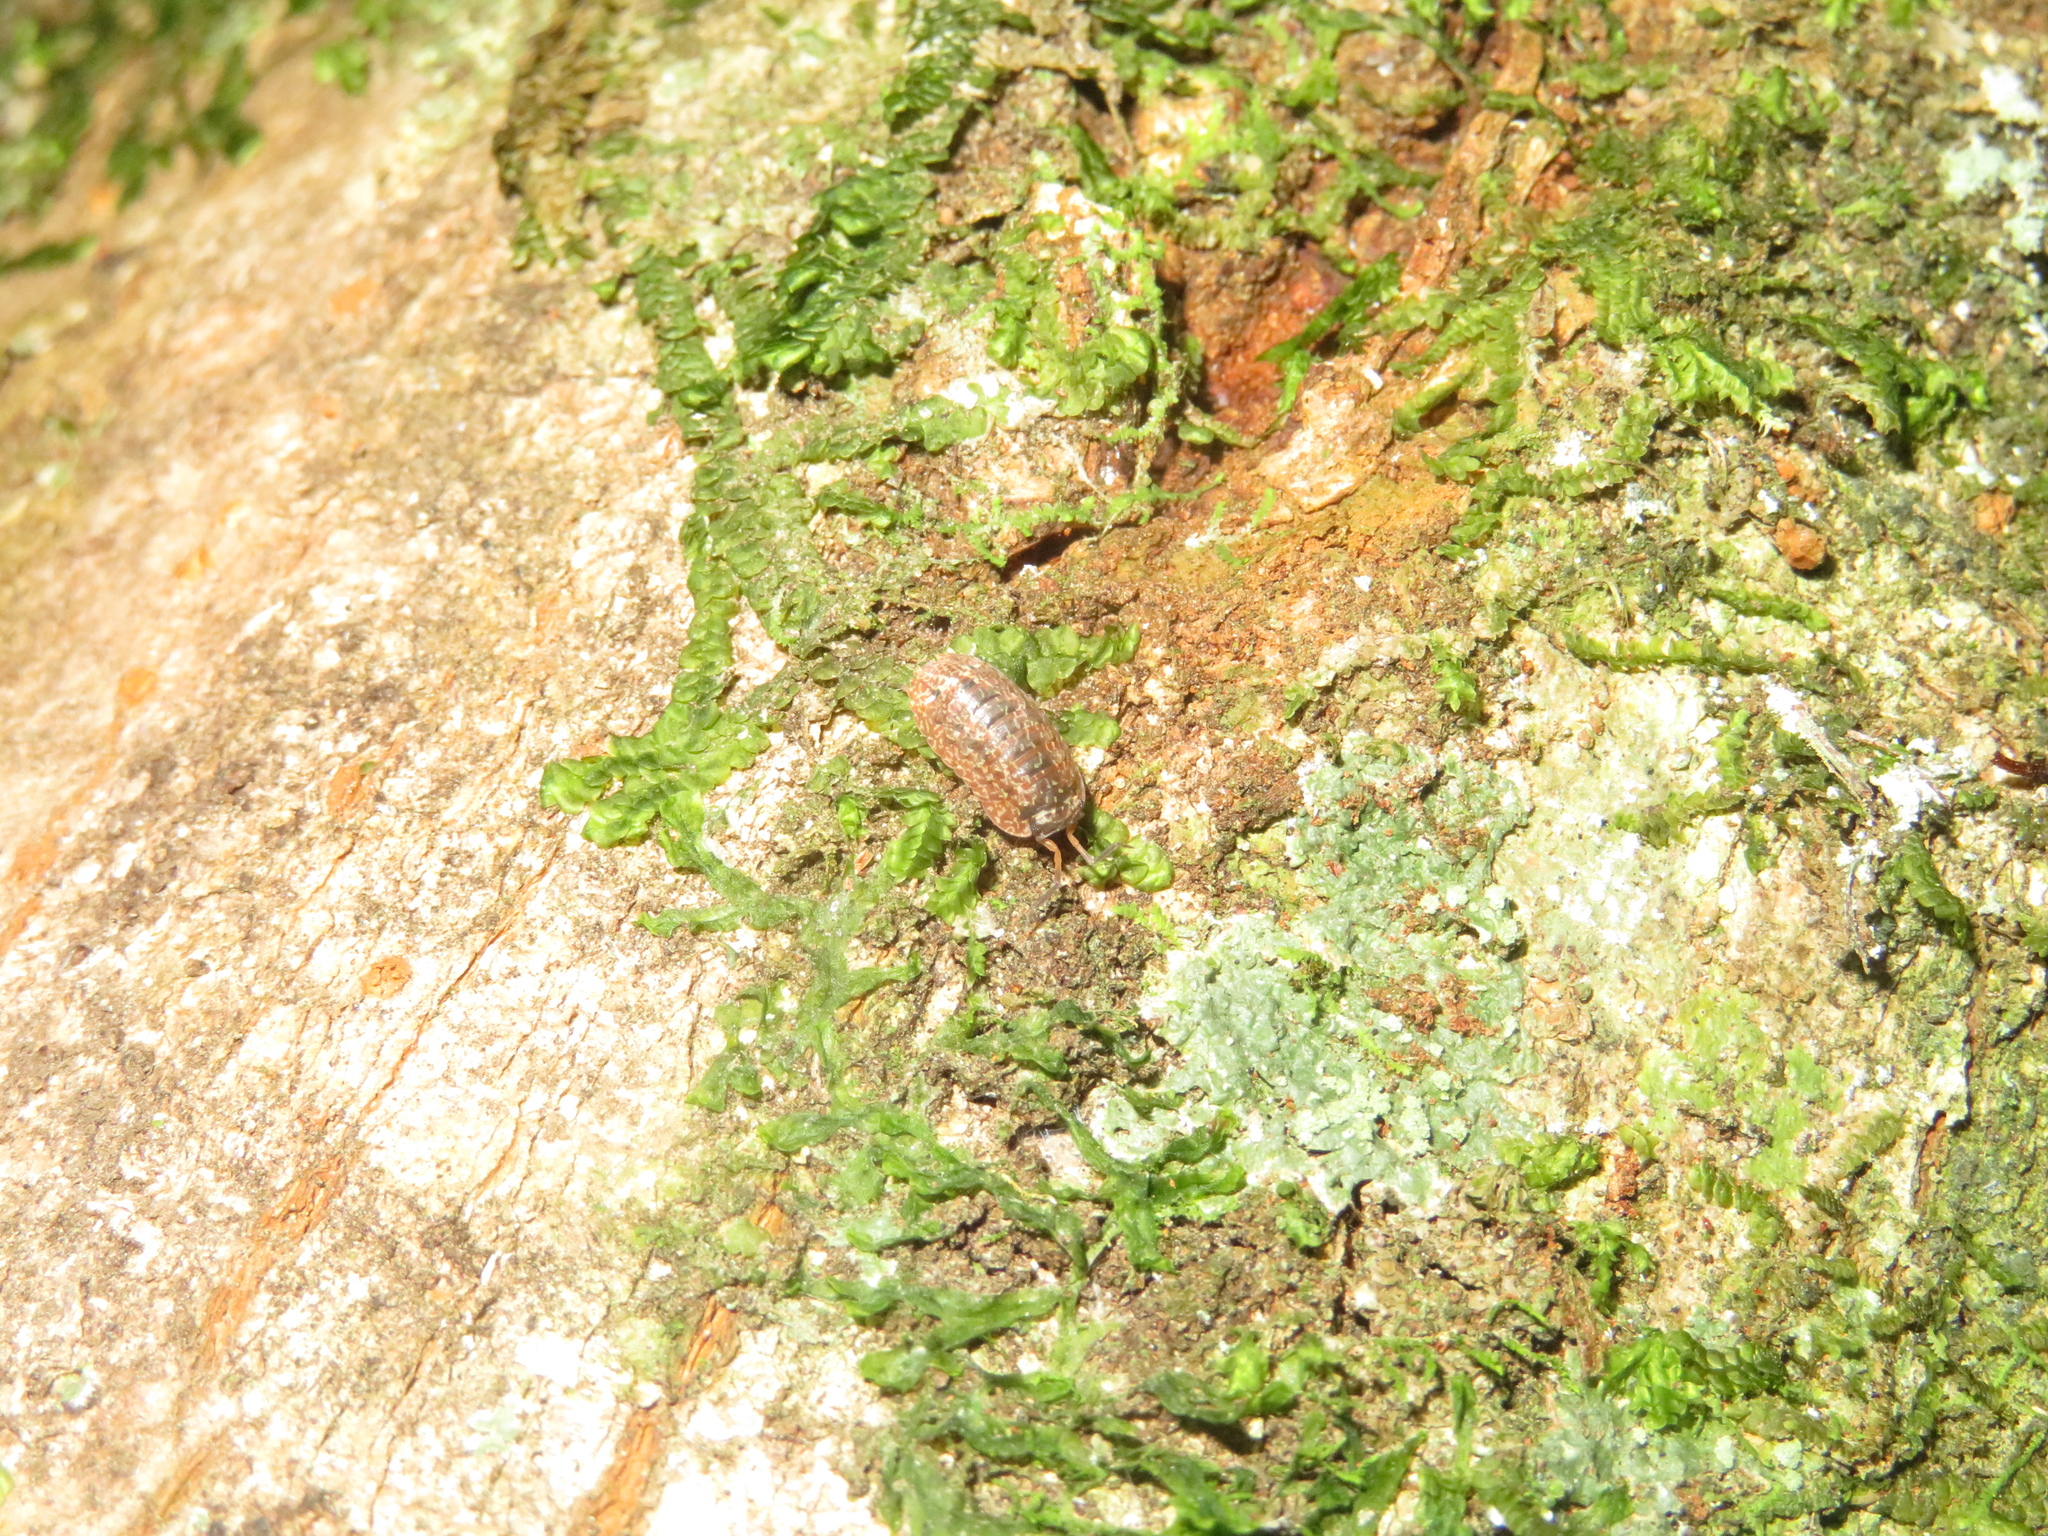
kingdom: Animalia
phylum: Arthropoda
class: Malacostraca
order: Isopoda
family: Armadillidae
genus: Cubaris
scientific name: Cubaris tarangensis
